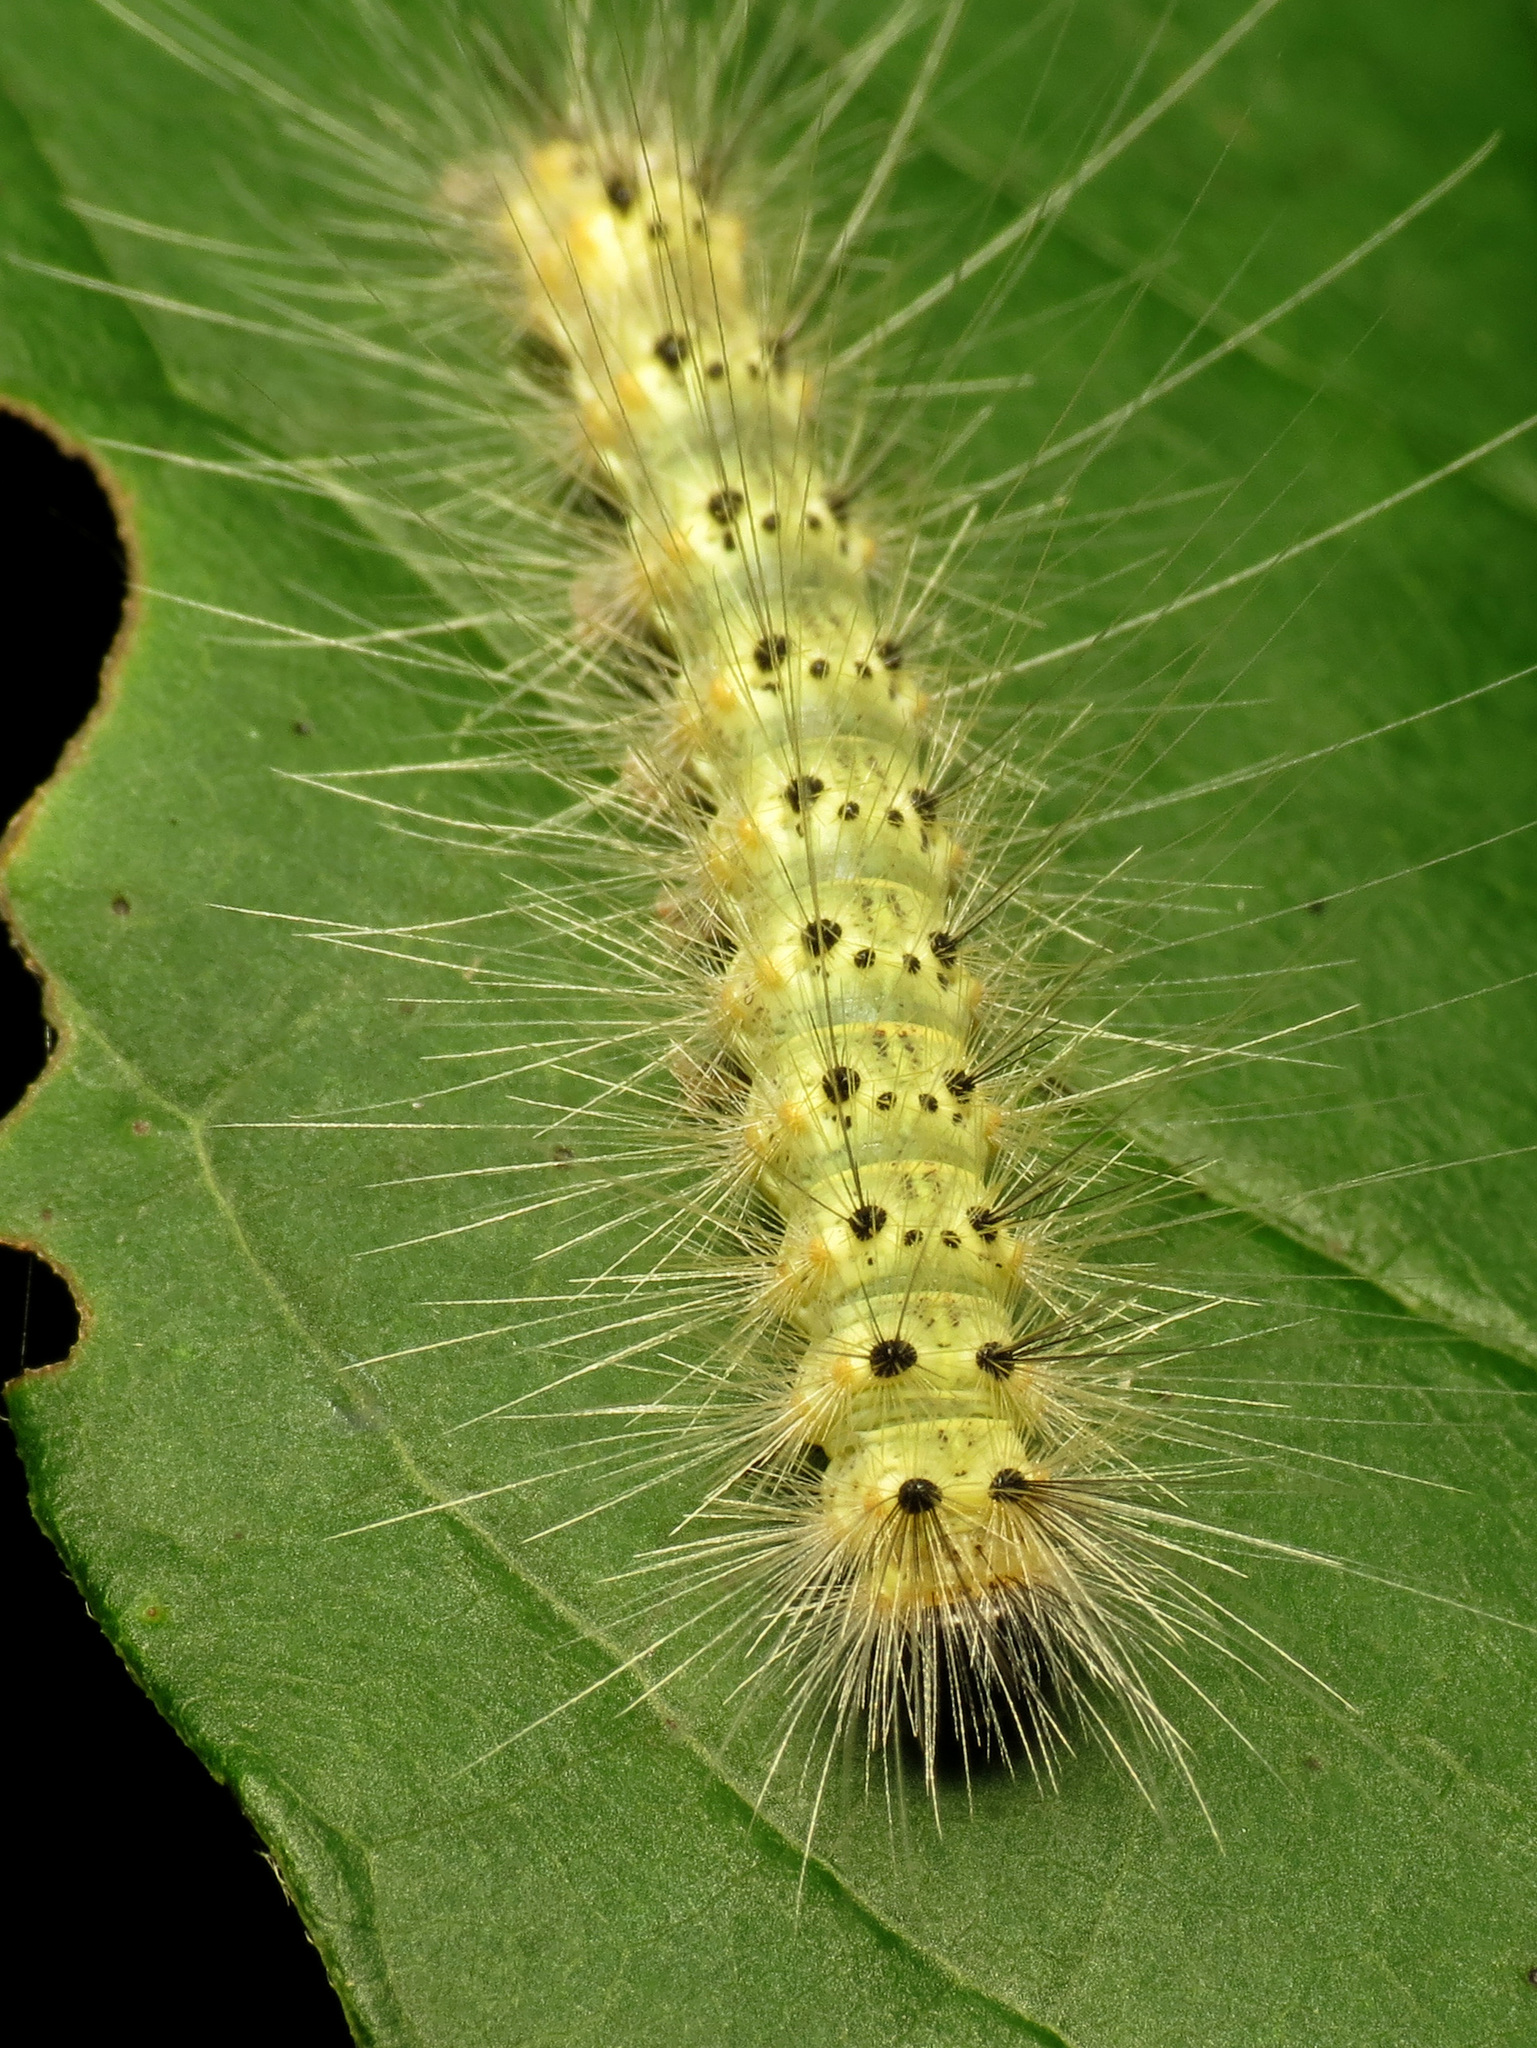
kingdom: Animalia
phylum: Arthropoda
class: Insecta
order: Lepidoptera
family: Erebidae
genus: Hyphantria
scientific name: Hyphantria cunea
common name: American white moth
